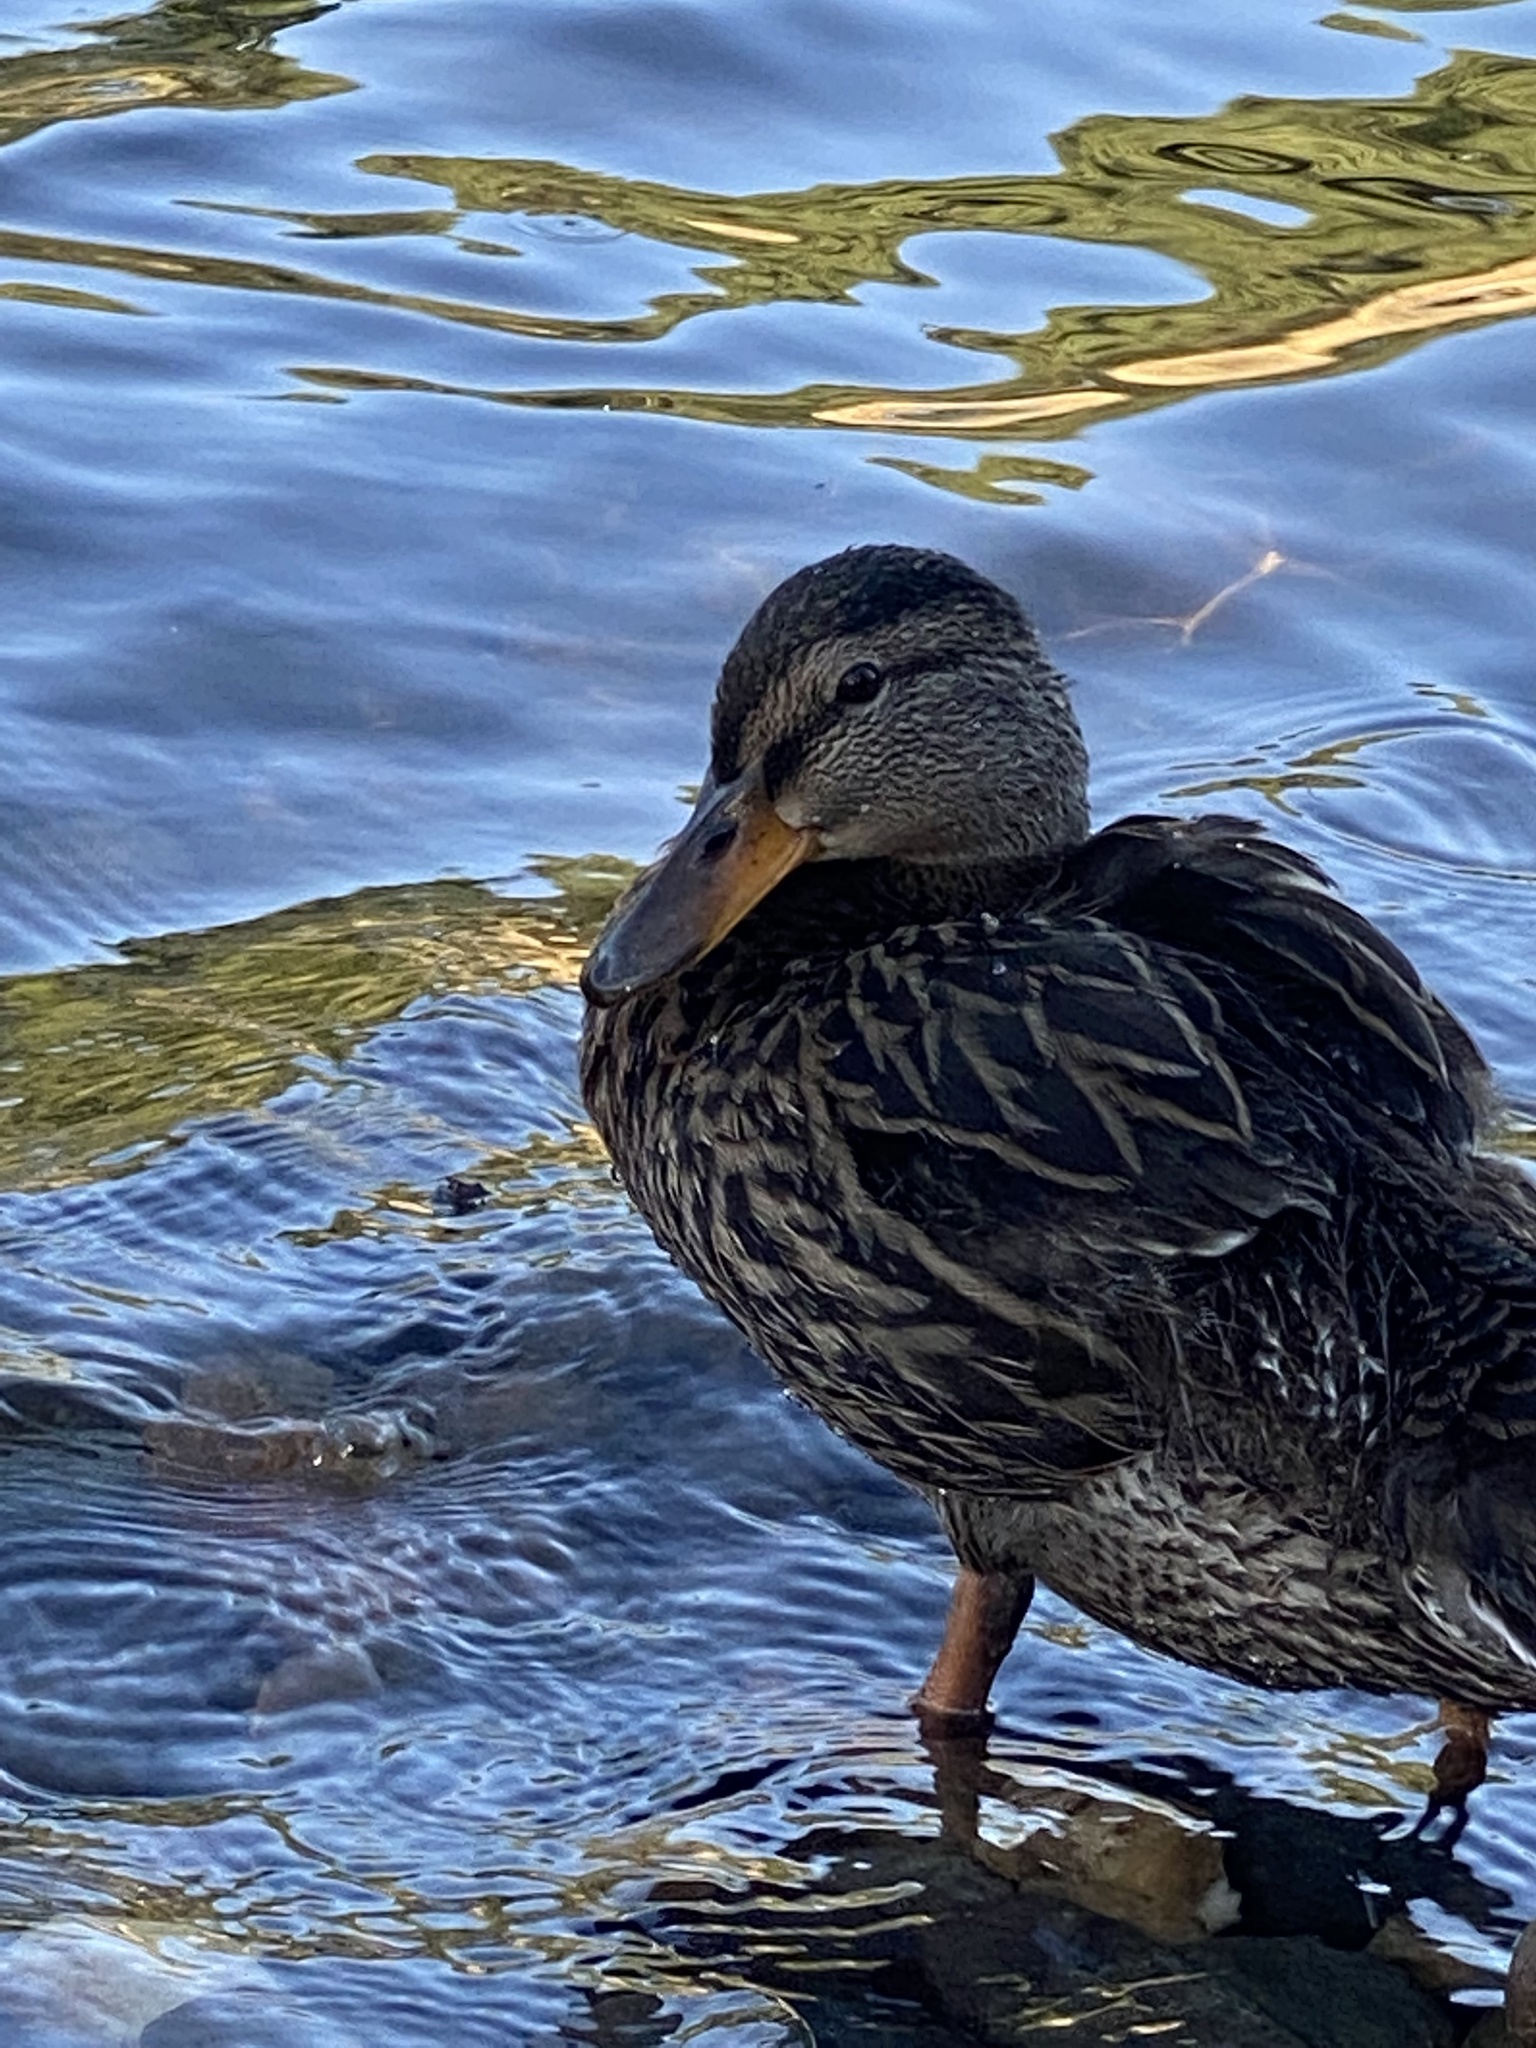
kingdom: Animalia
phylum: Chordata
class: Aves
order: Anseriformes
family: Anatidae
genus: Anas
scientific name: Anas platyrhynchos
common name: Mallard
